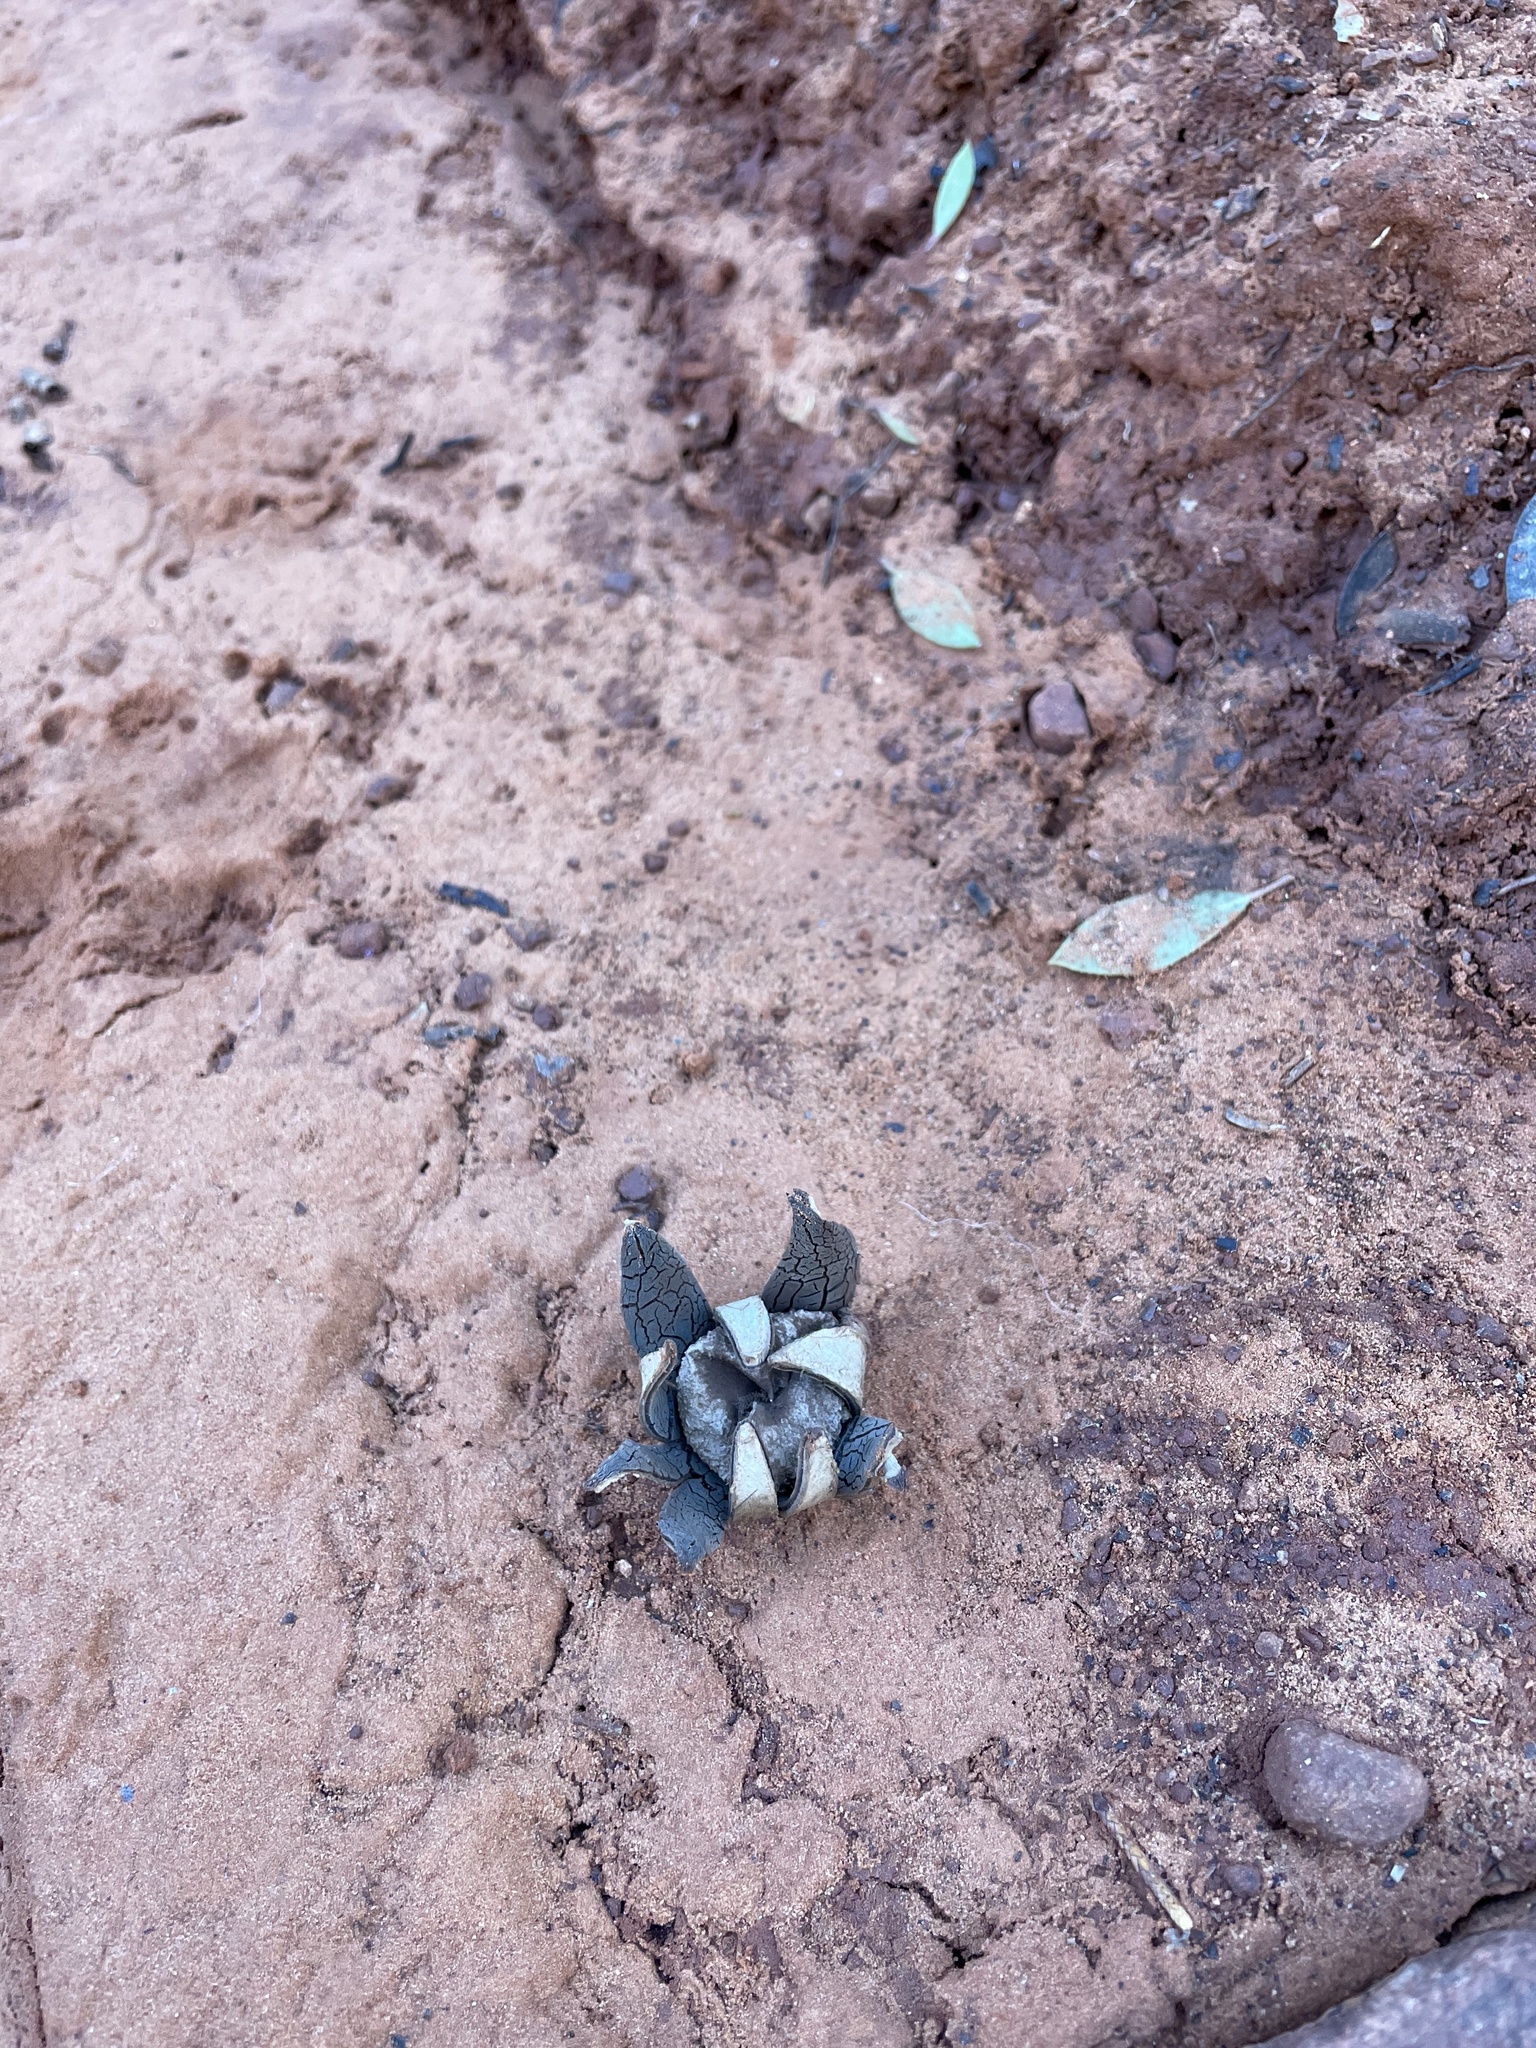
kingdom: Fungi
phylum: Basidiomycota
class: Agaricomycetes
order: Boletales
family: Diplocystidiaceae
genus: Astraeus
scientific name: Astraeus morganii
